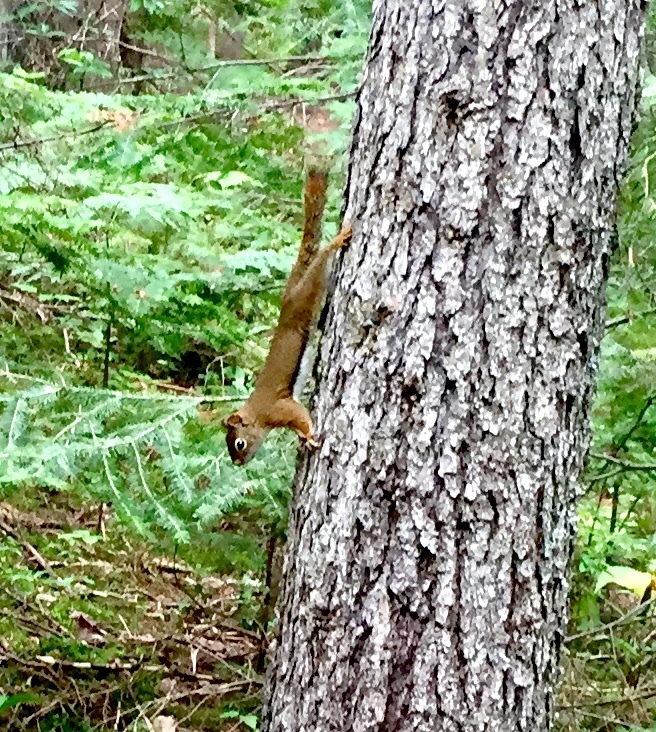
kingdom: Animalia
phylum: Chordata
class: Mammalia
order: Rodentia
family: Sciuridae
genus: Tamiasciurus
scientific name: Tamiasciurus hudsonicus
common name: Red squirrel
